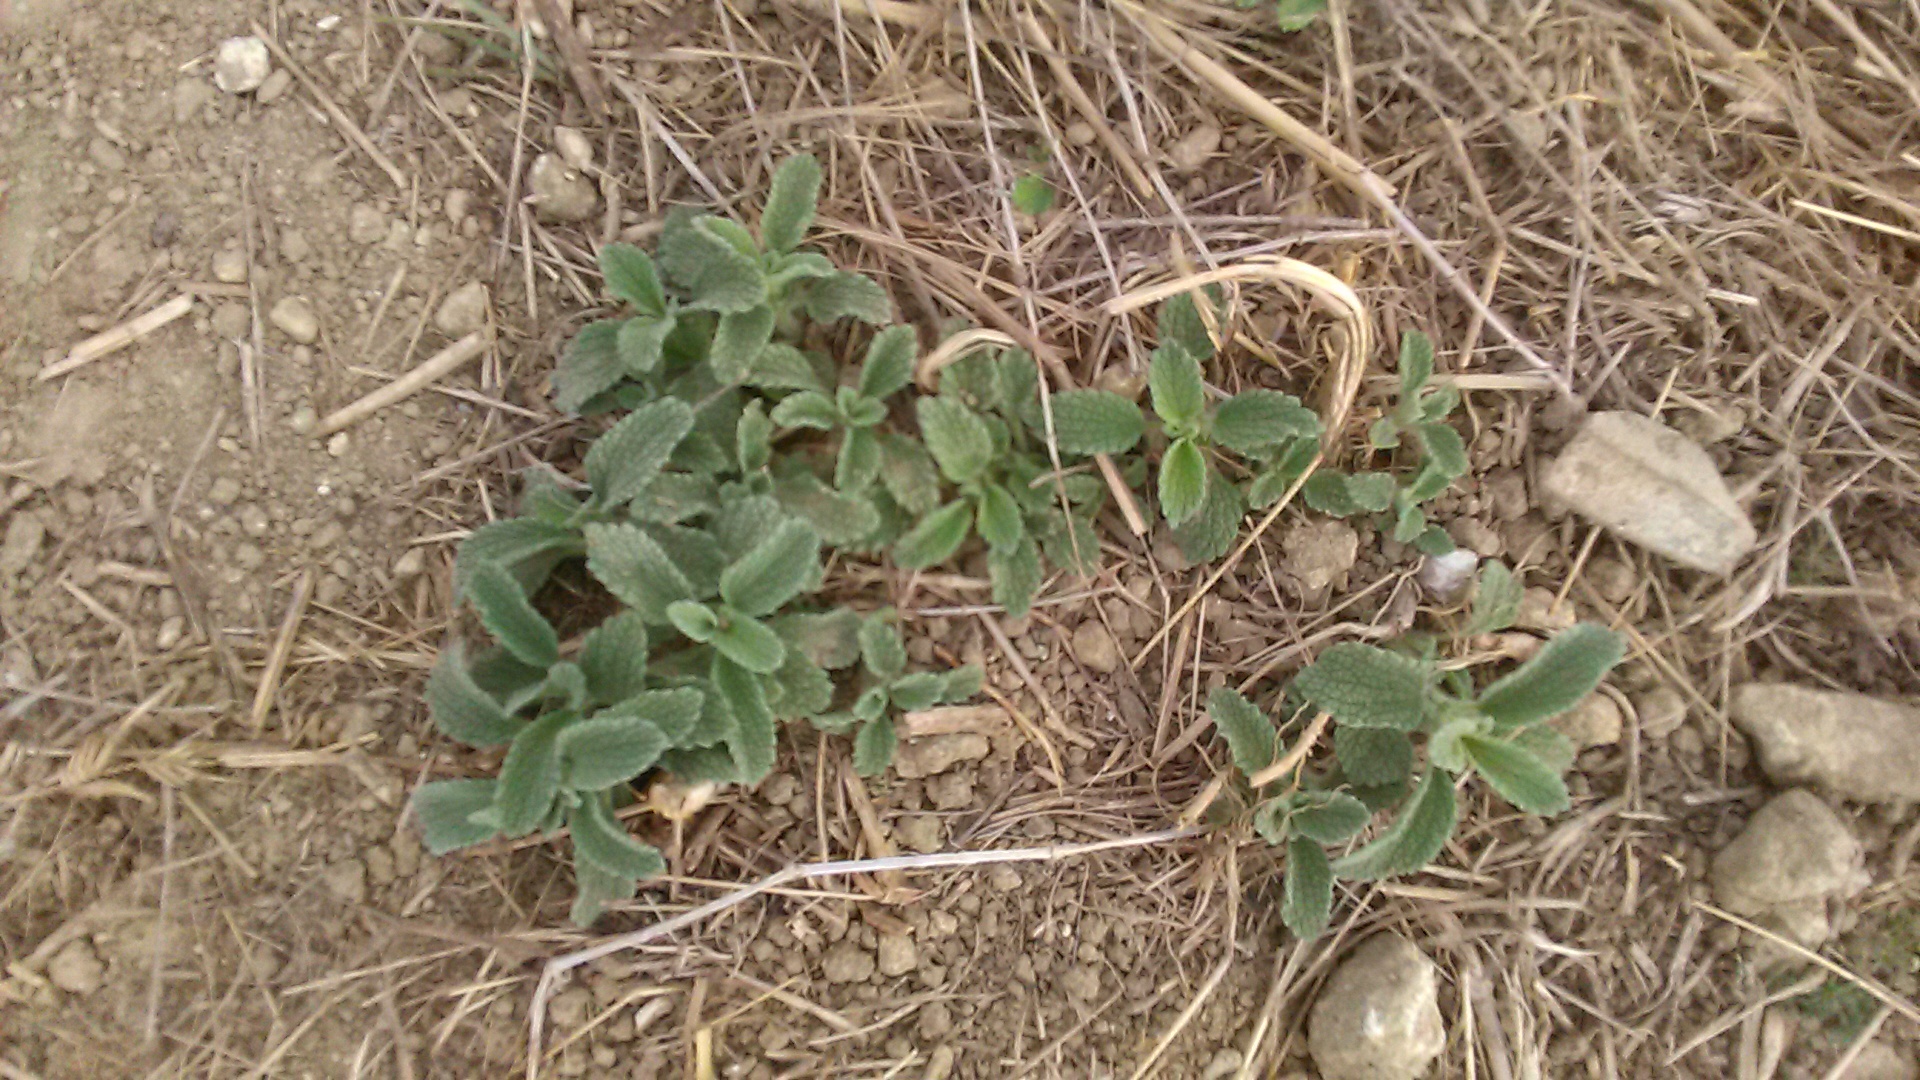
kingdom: Plantae
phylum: Tracheophyta
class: Magnoliopsida
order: Lamiales
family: Lamiaceae
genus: Marrubium
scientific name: Marrubium peregrinum
